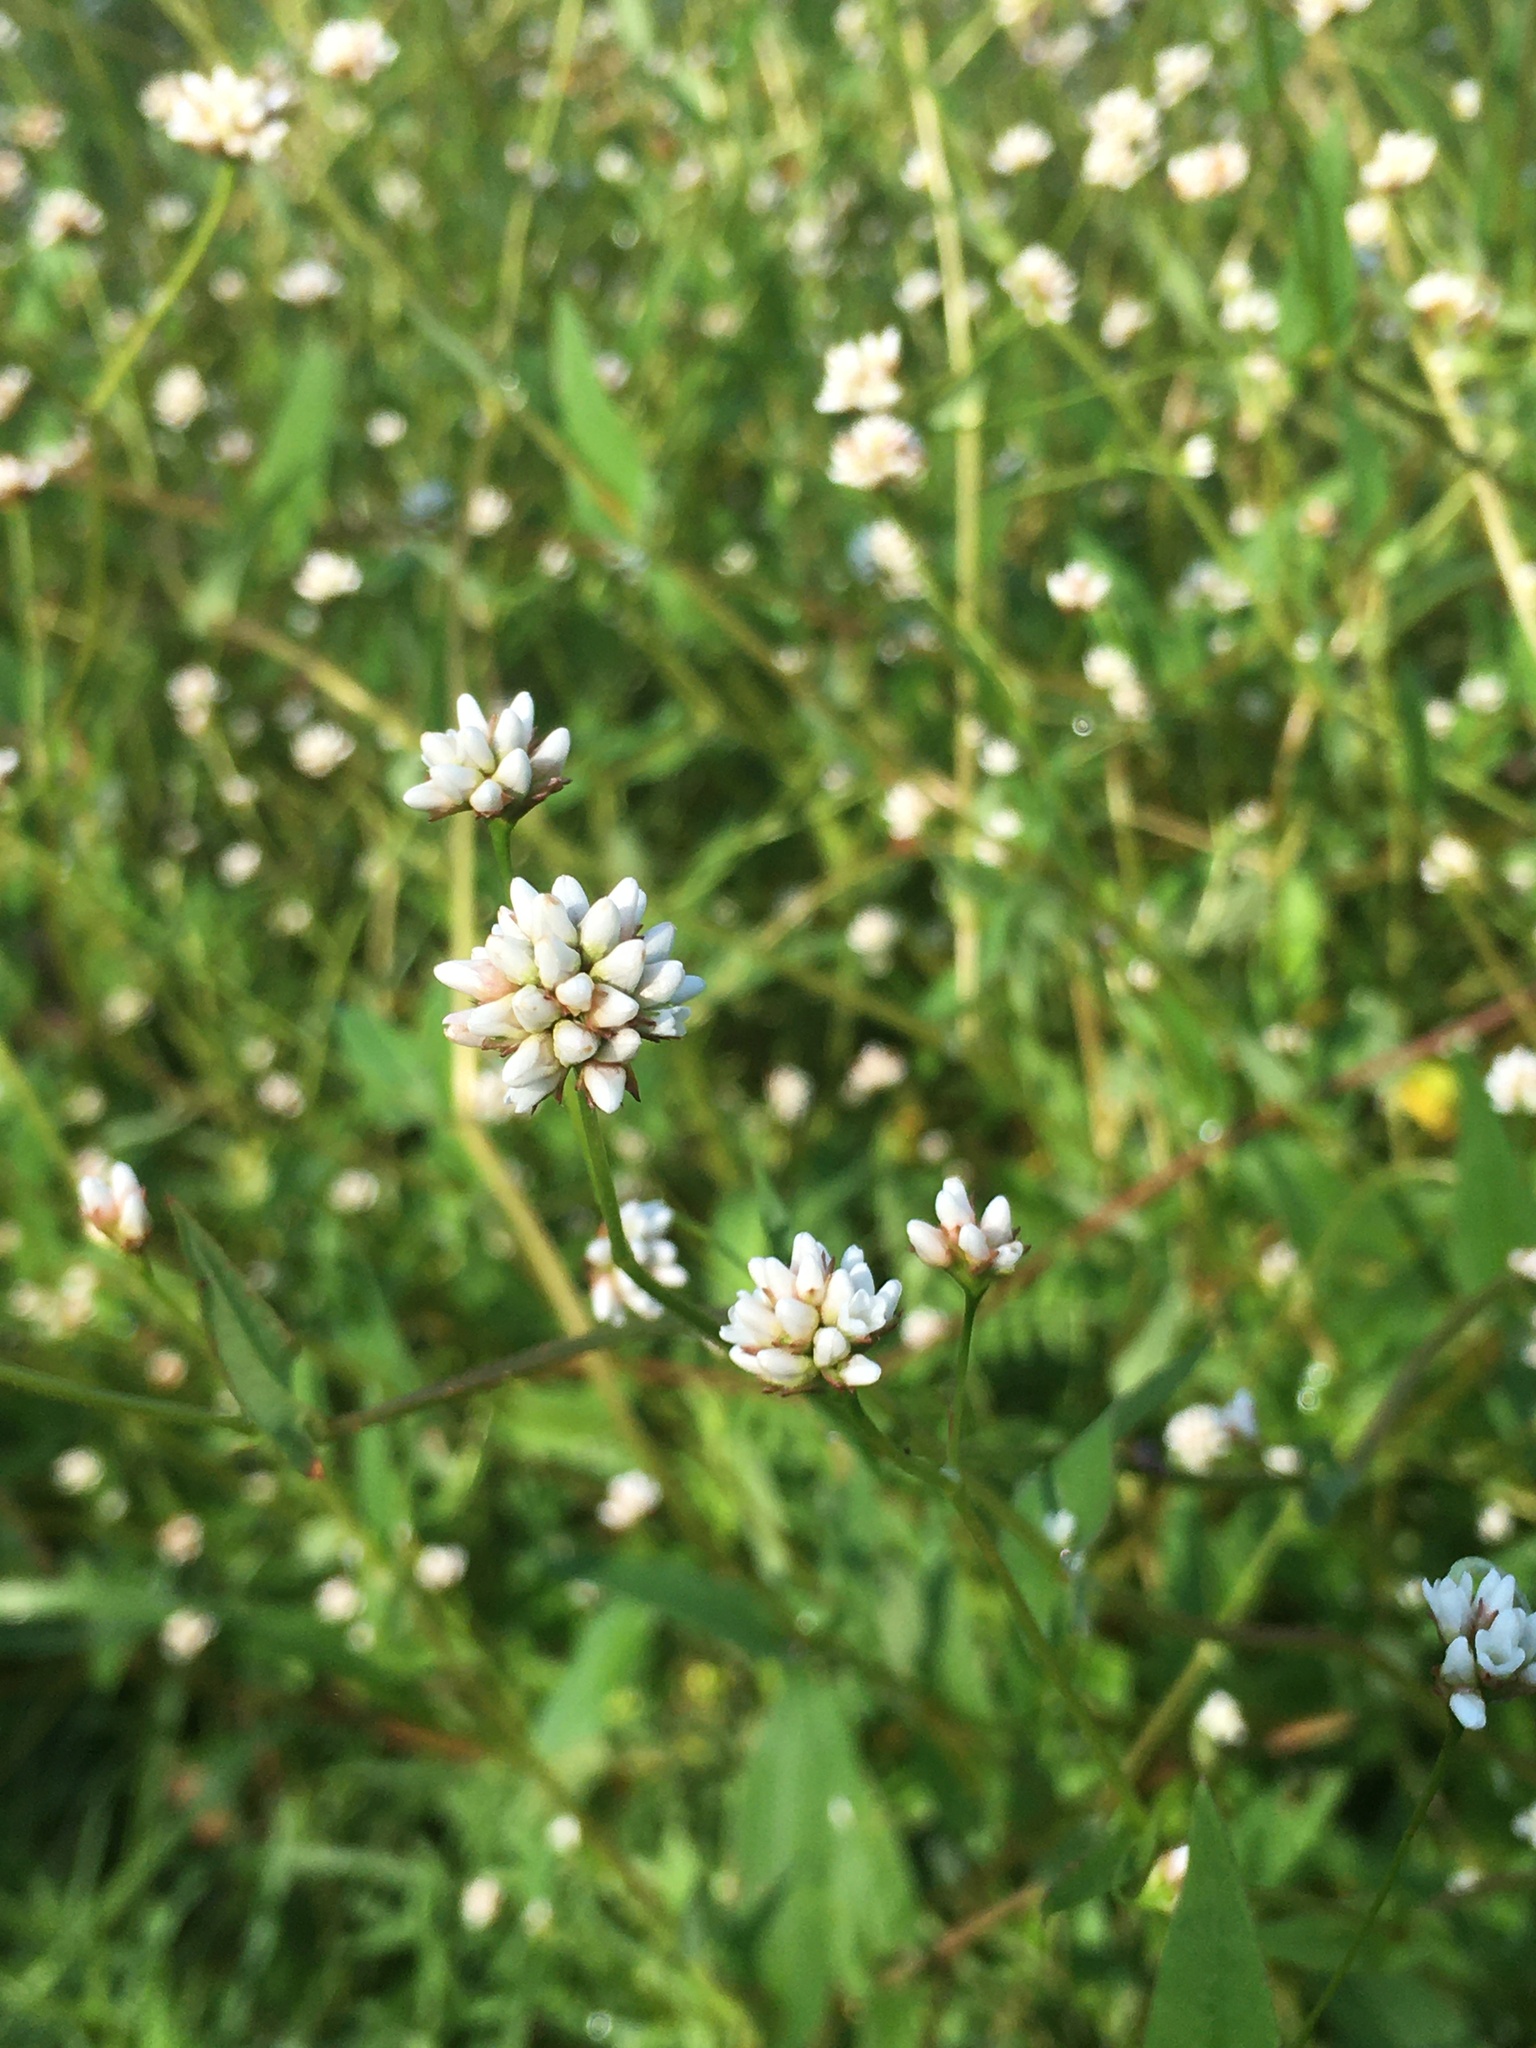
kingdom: Plantae
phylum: Tracheophyta
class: Magnoliopsida
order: Caryophyllales
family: Polygonaceae
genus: Persicaria
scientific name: Persicaria sagittata
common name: American tearthumb
